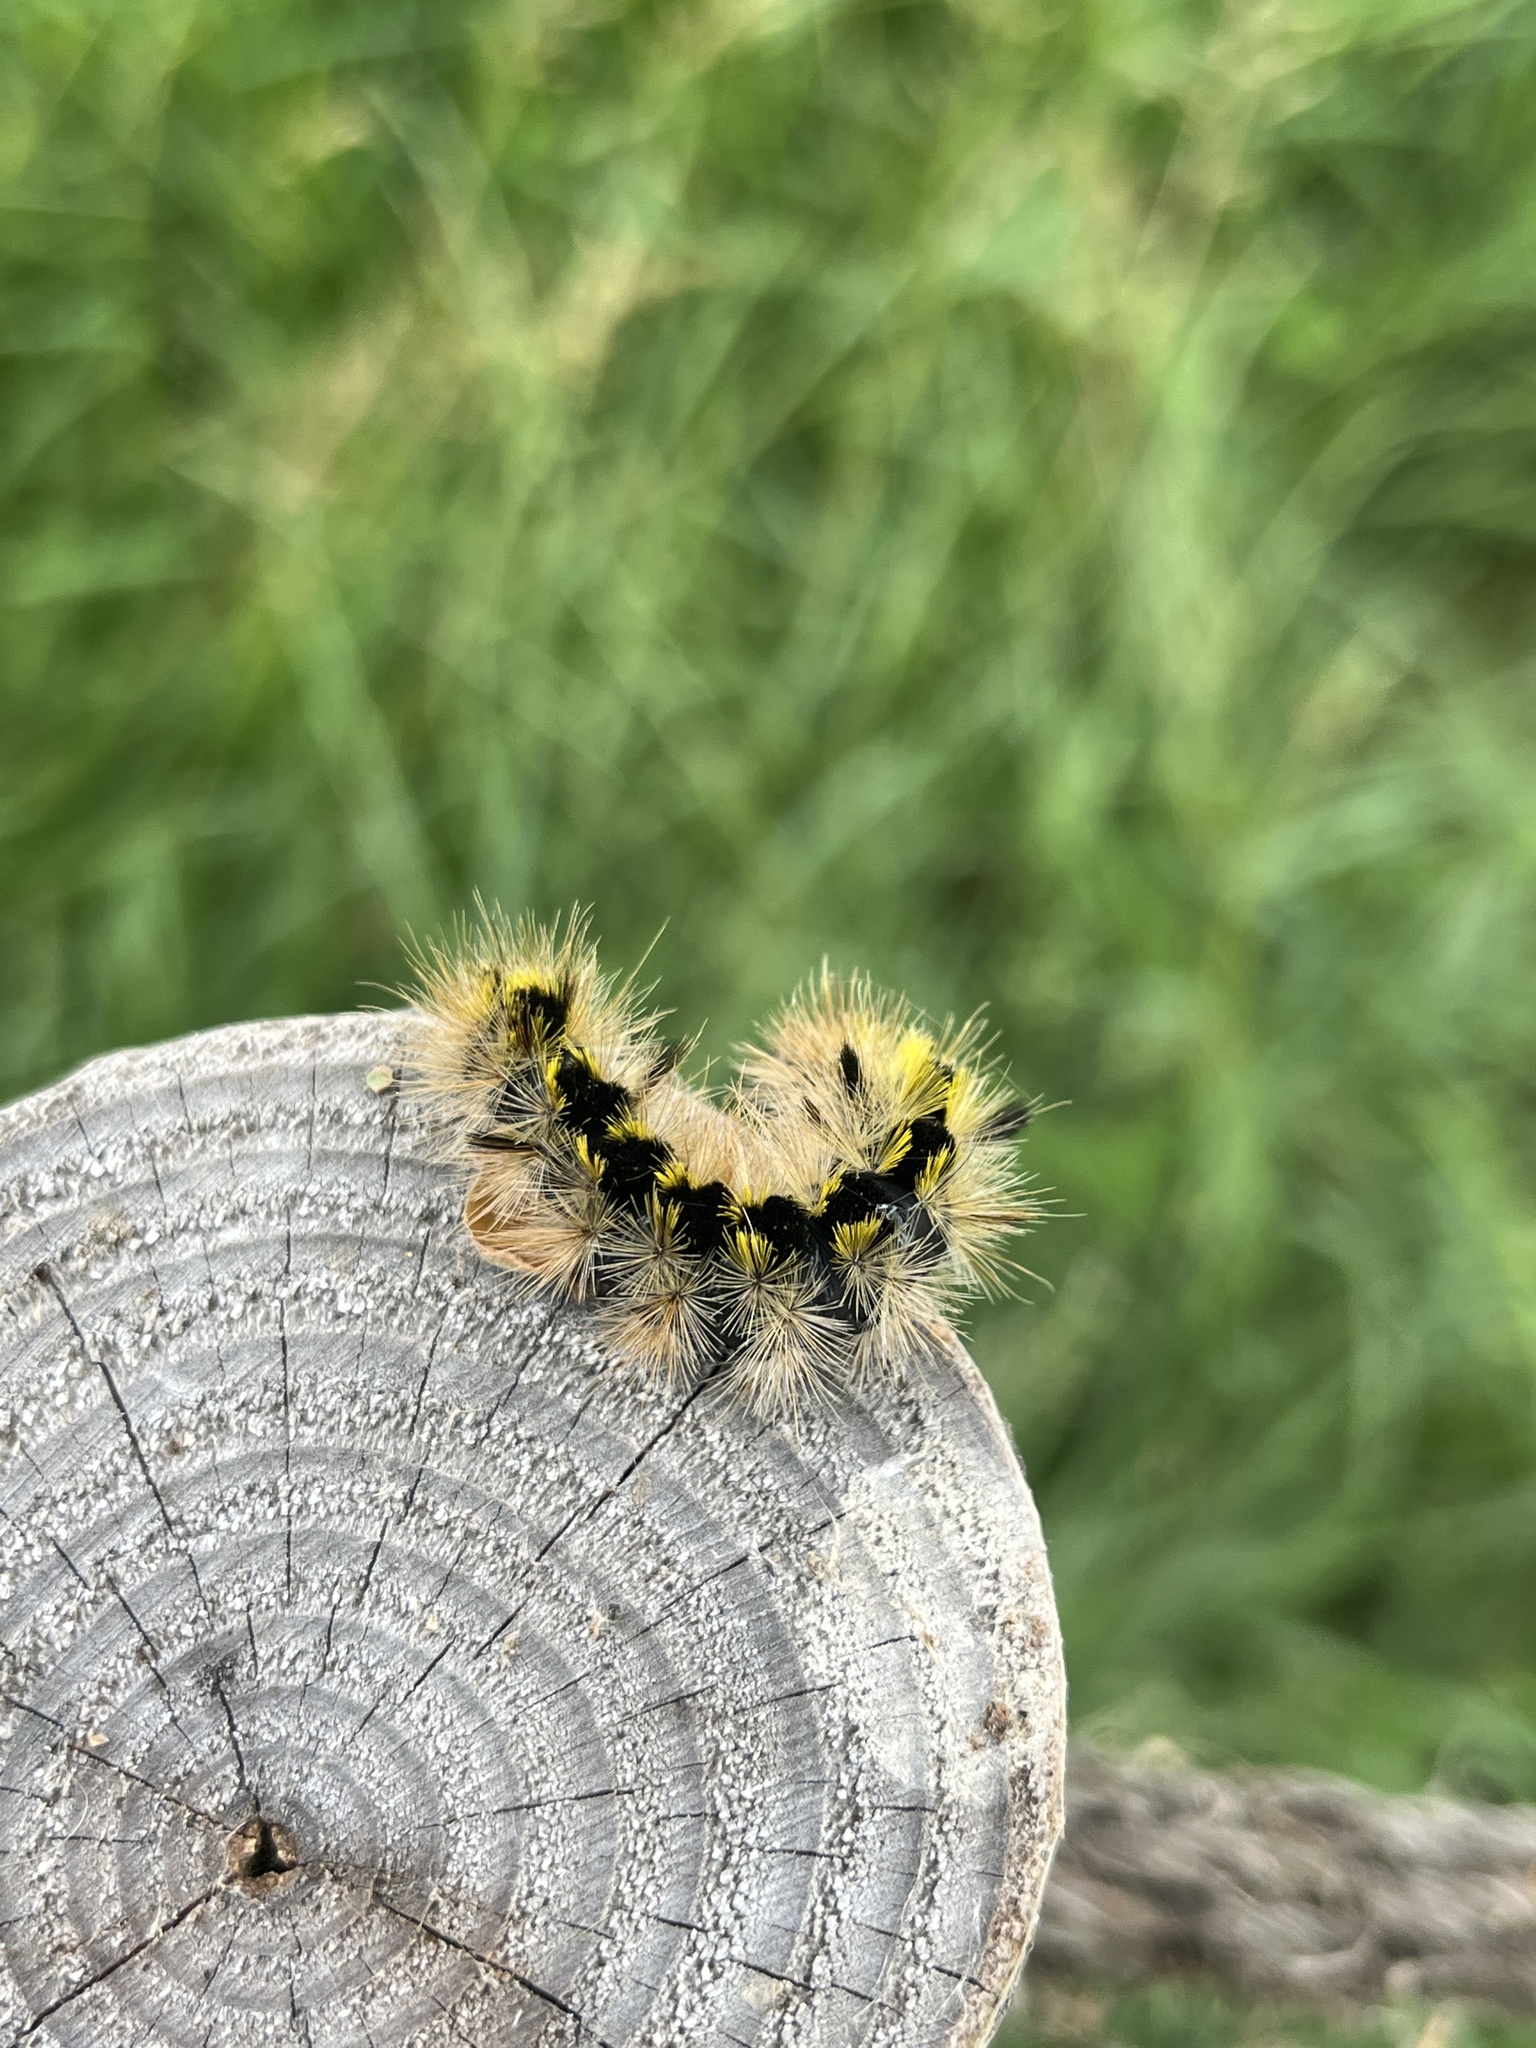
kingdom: Animalia
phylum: Arthropoda
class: Insecta
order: Lepidoptera
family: Erebidae
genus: Lophocampa
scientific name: Lophocampa argentata
